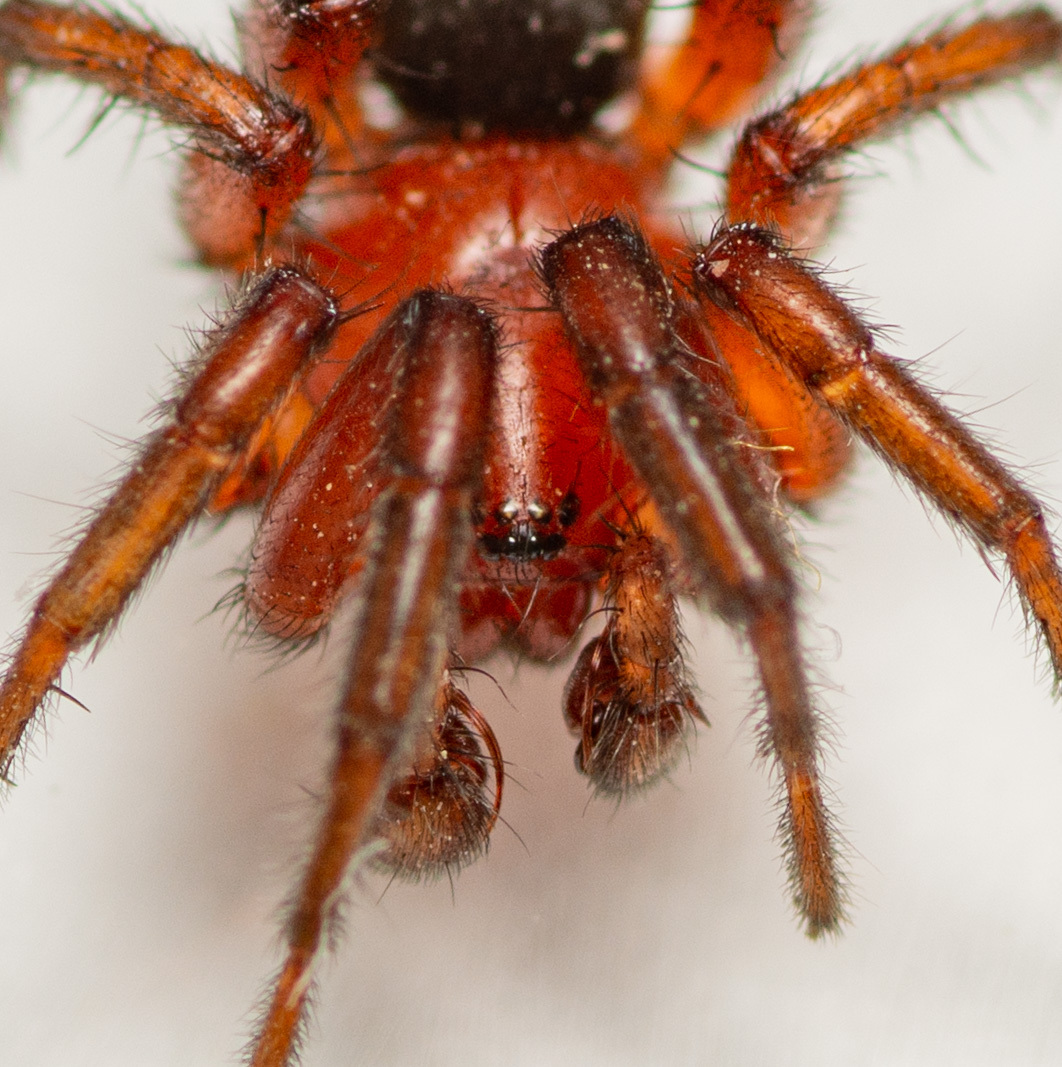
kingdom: Animalia
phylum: Arthropoda
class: Arachnida
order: Araneae
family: Gnaphosidae
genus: Gnaphosa
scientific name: Gnaphosa sericata
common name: Ground spiders
